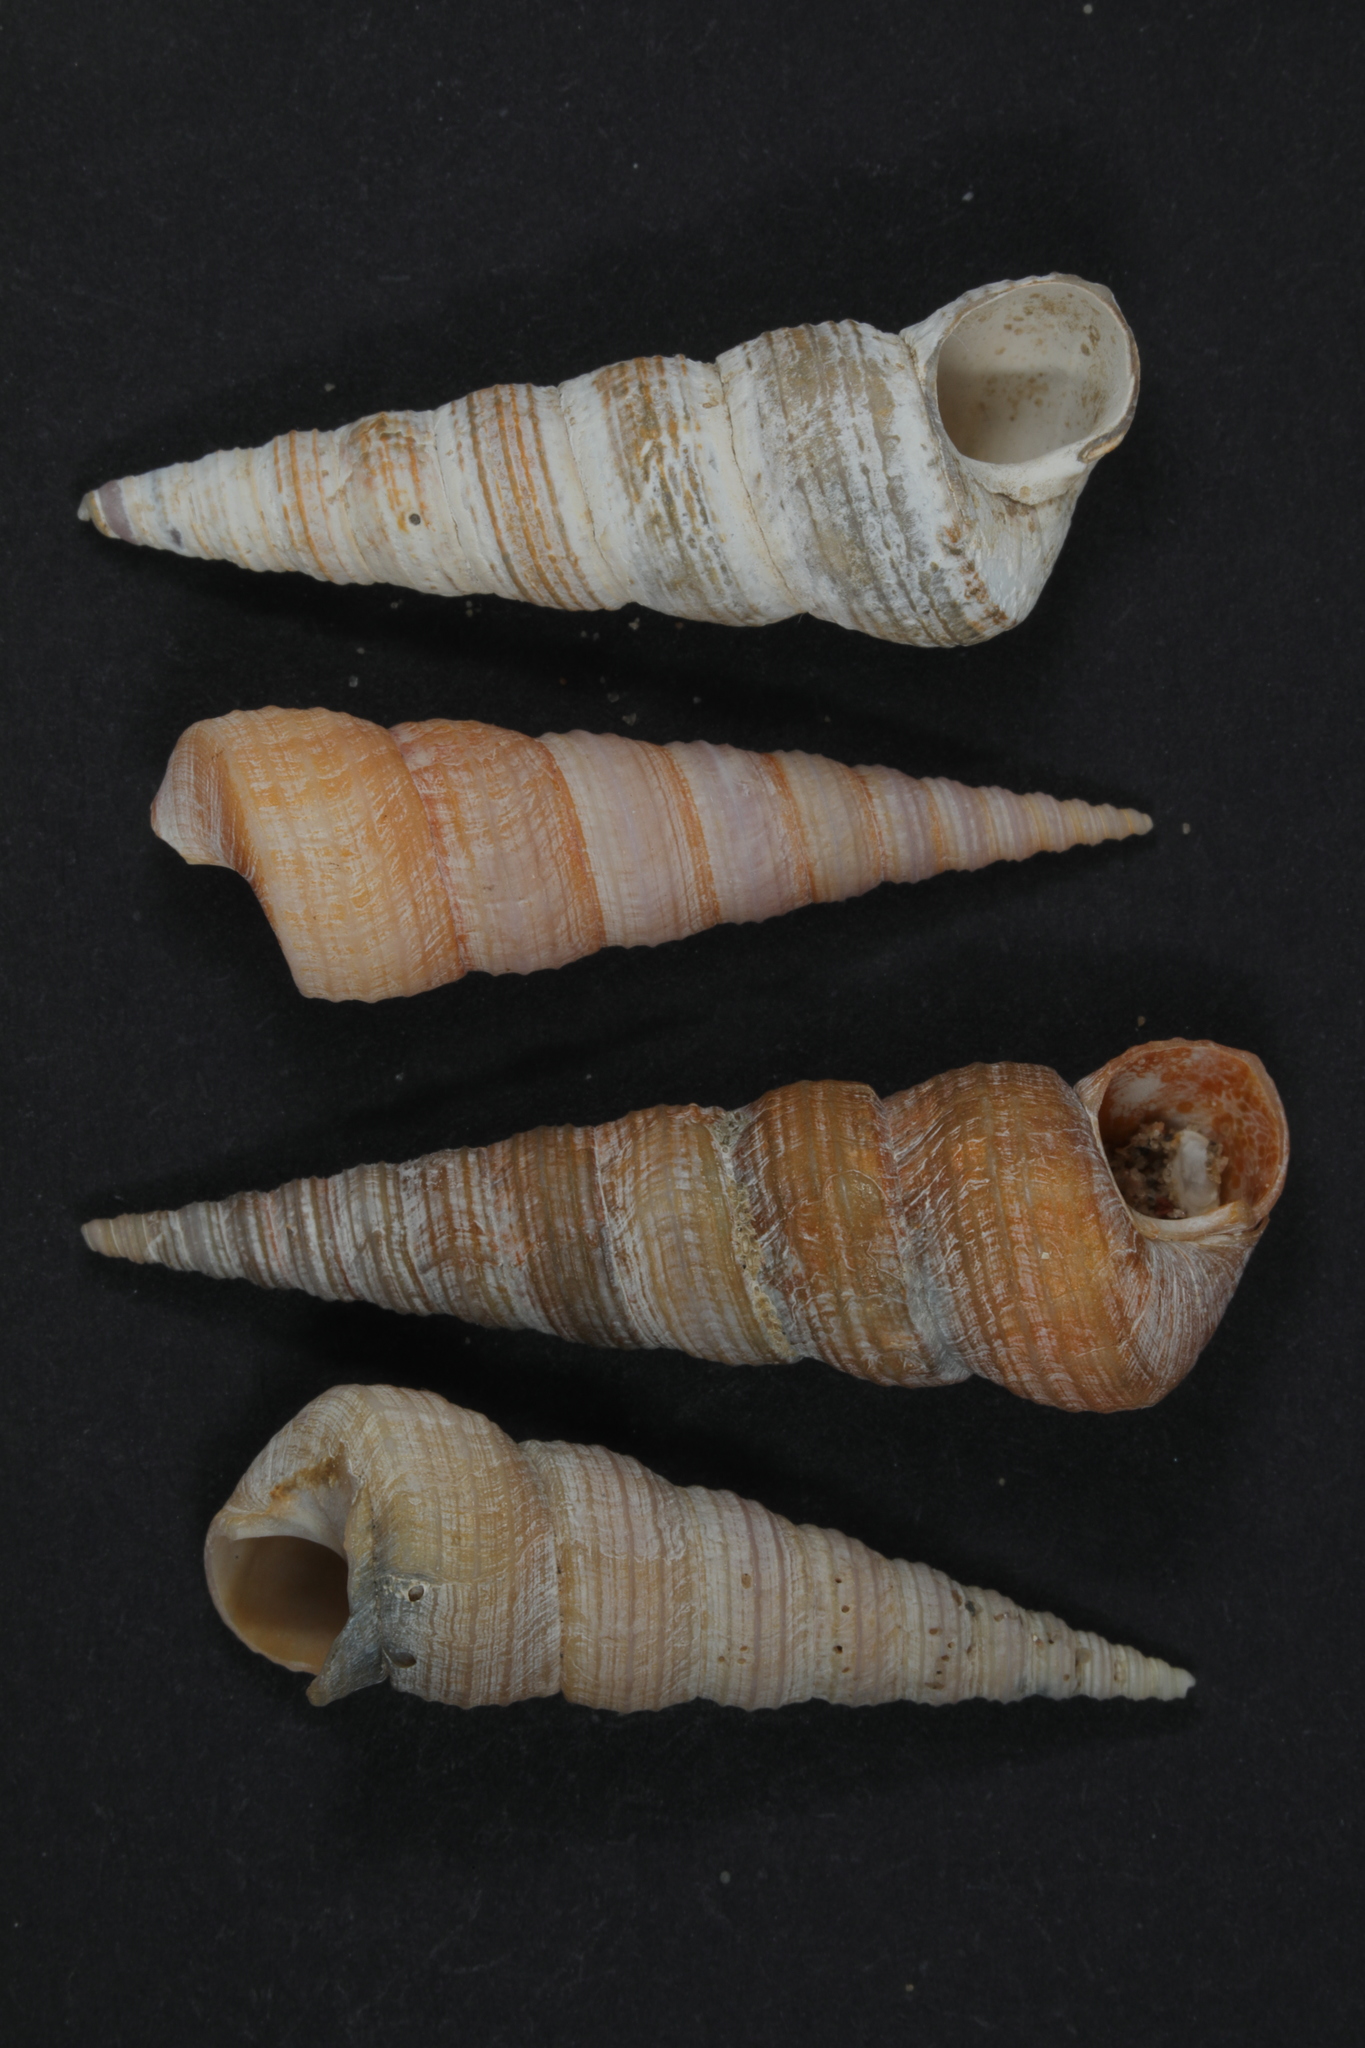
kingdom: Animalia
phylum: Mollusca
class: Gastropoda
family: Turritellidae
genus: Turritellinella
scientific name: Turritellinella tricarinata
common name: Auger shell
